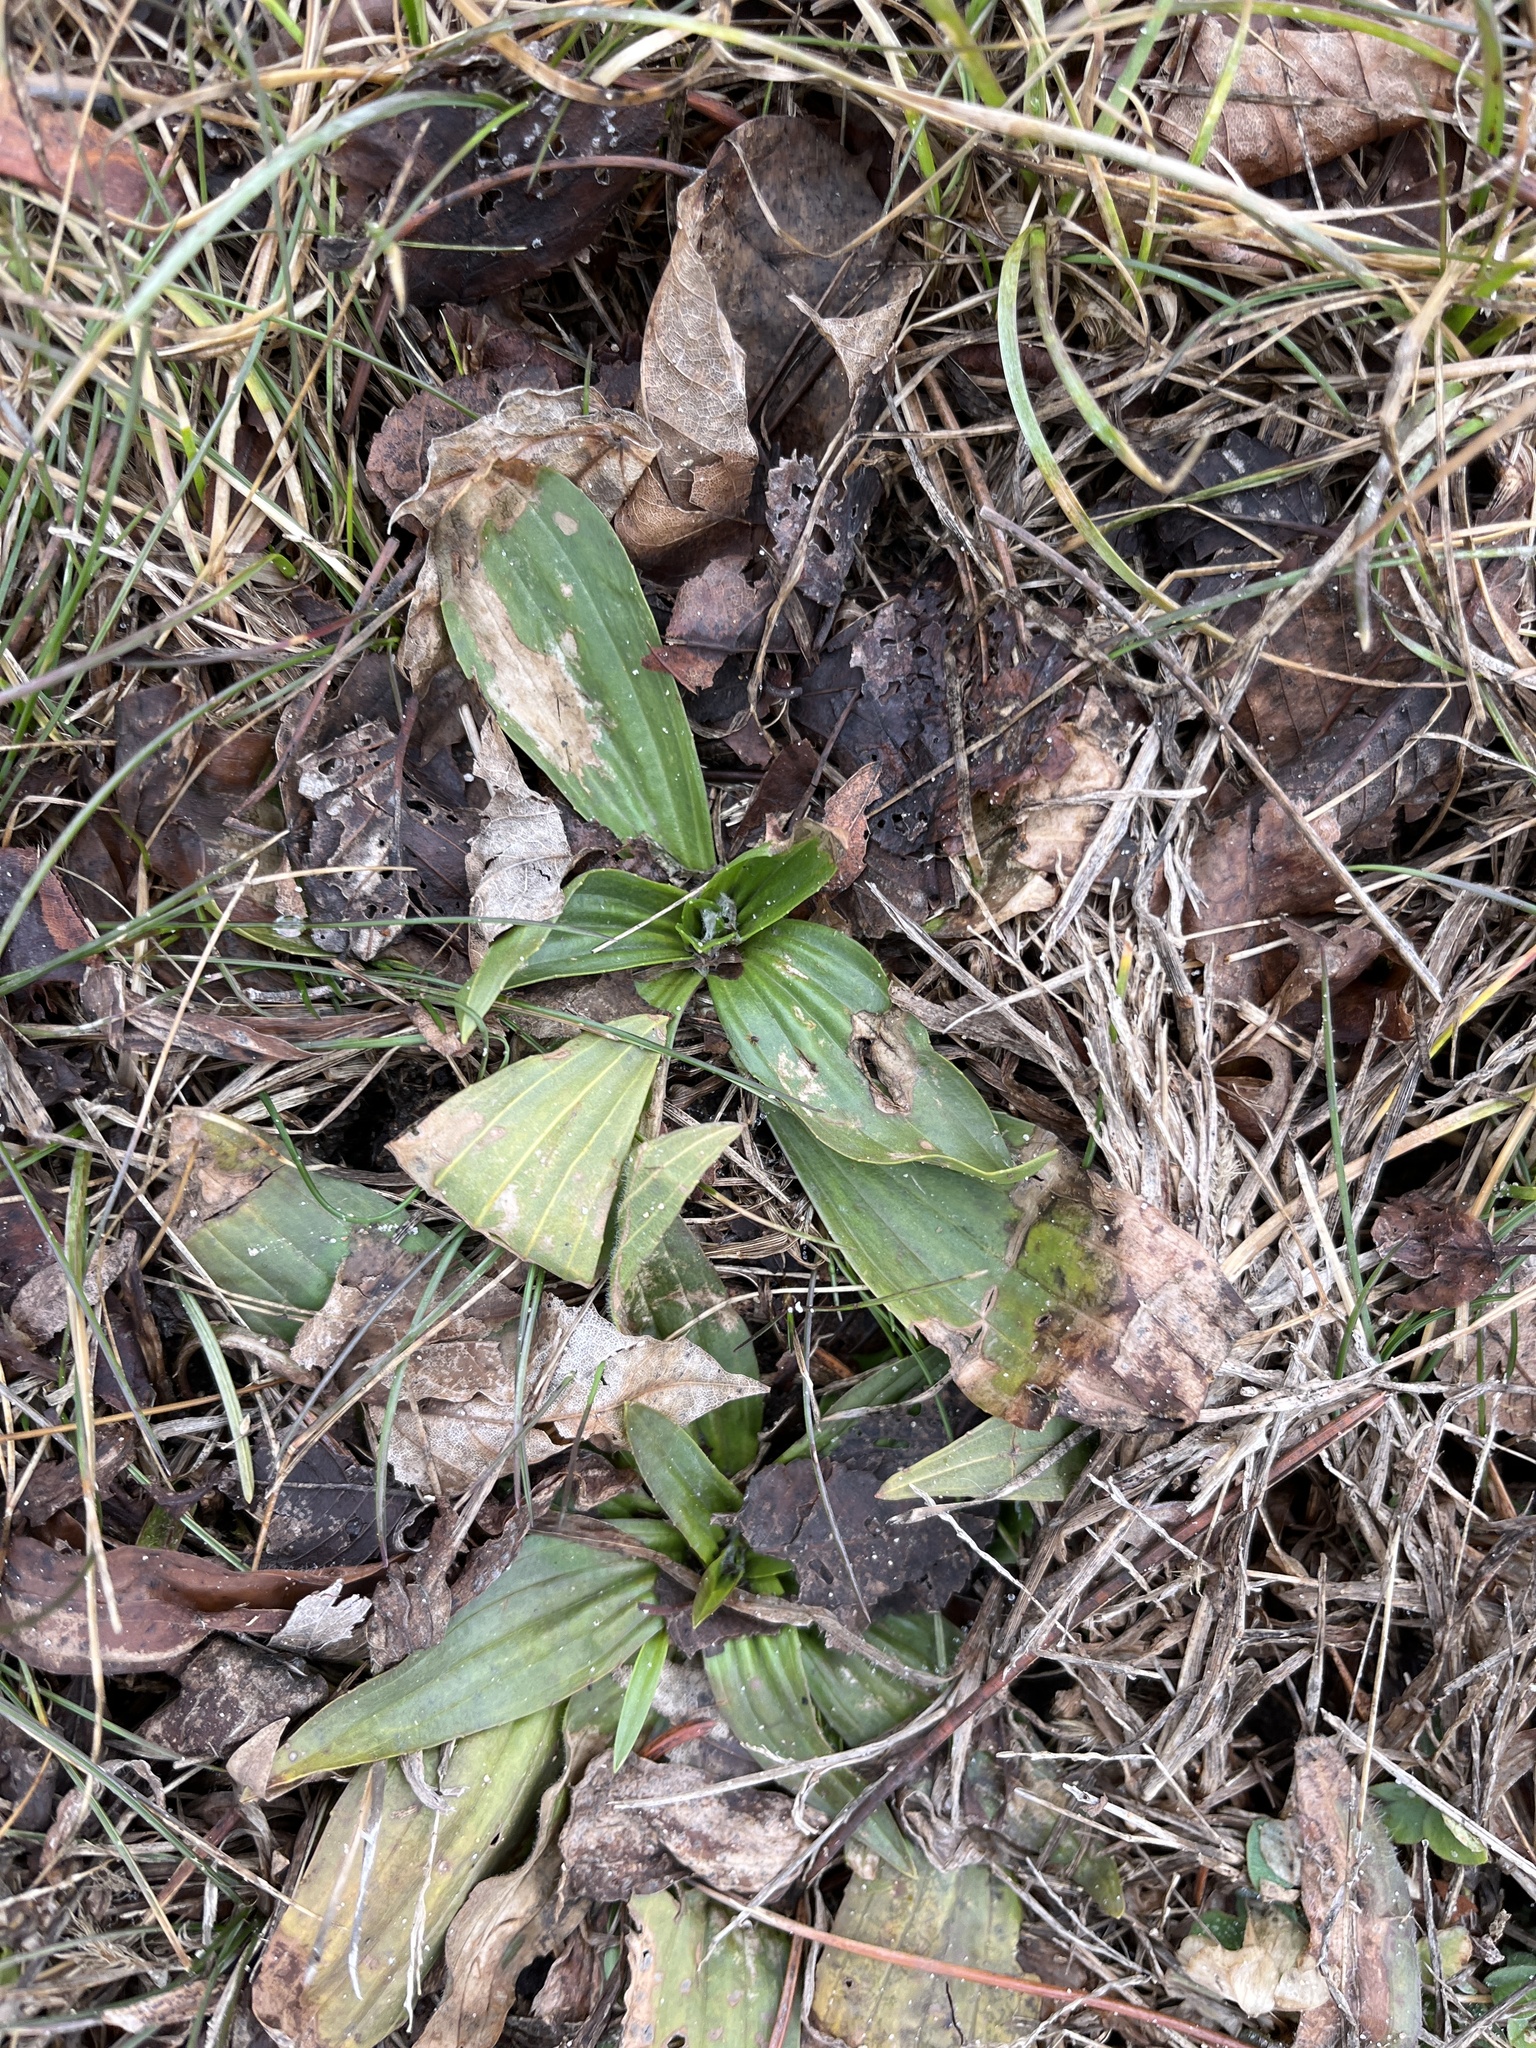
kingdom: Plantae
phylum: Tracheophyta
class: Magnoliopsida
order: Lamiales
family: Plantaginaceae
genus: Plantago
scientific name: Plantago lanceolata
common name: Ribwort plantain
